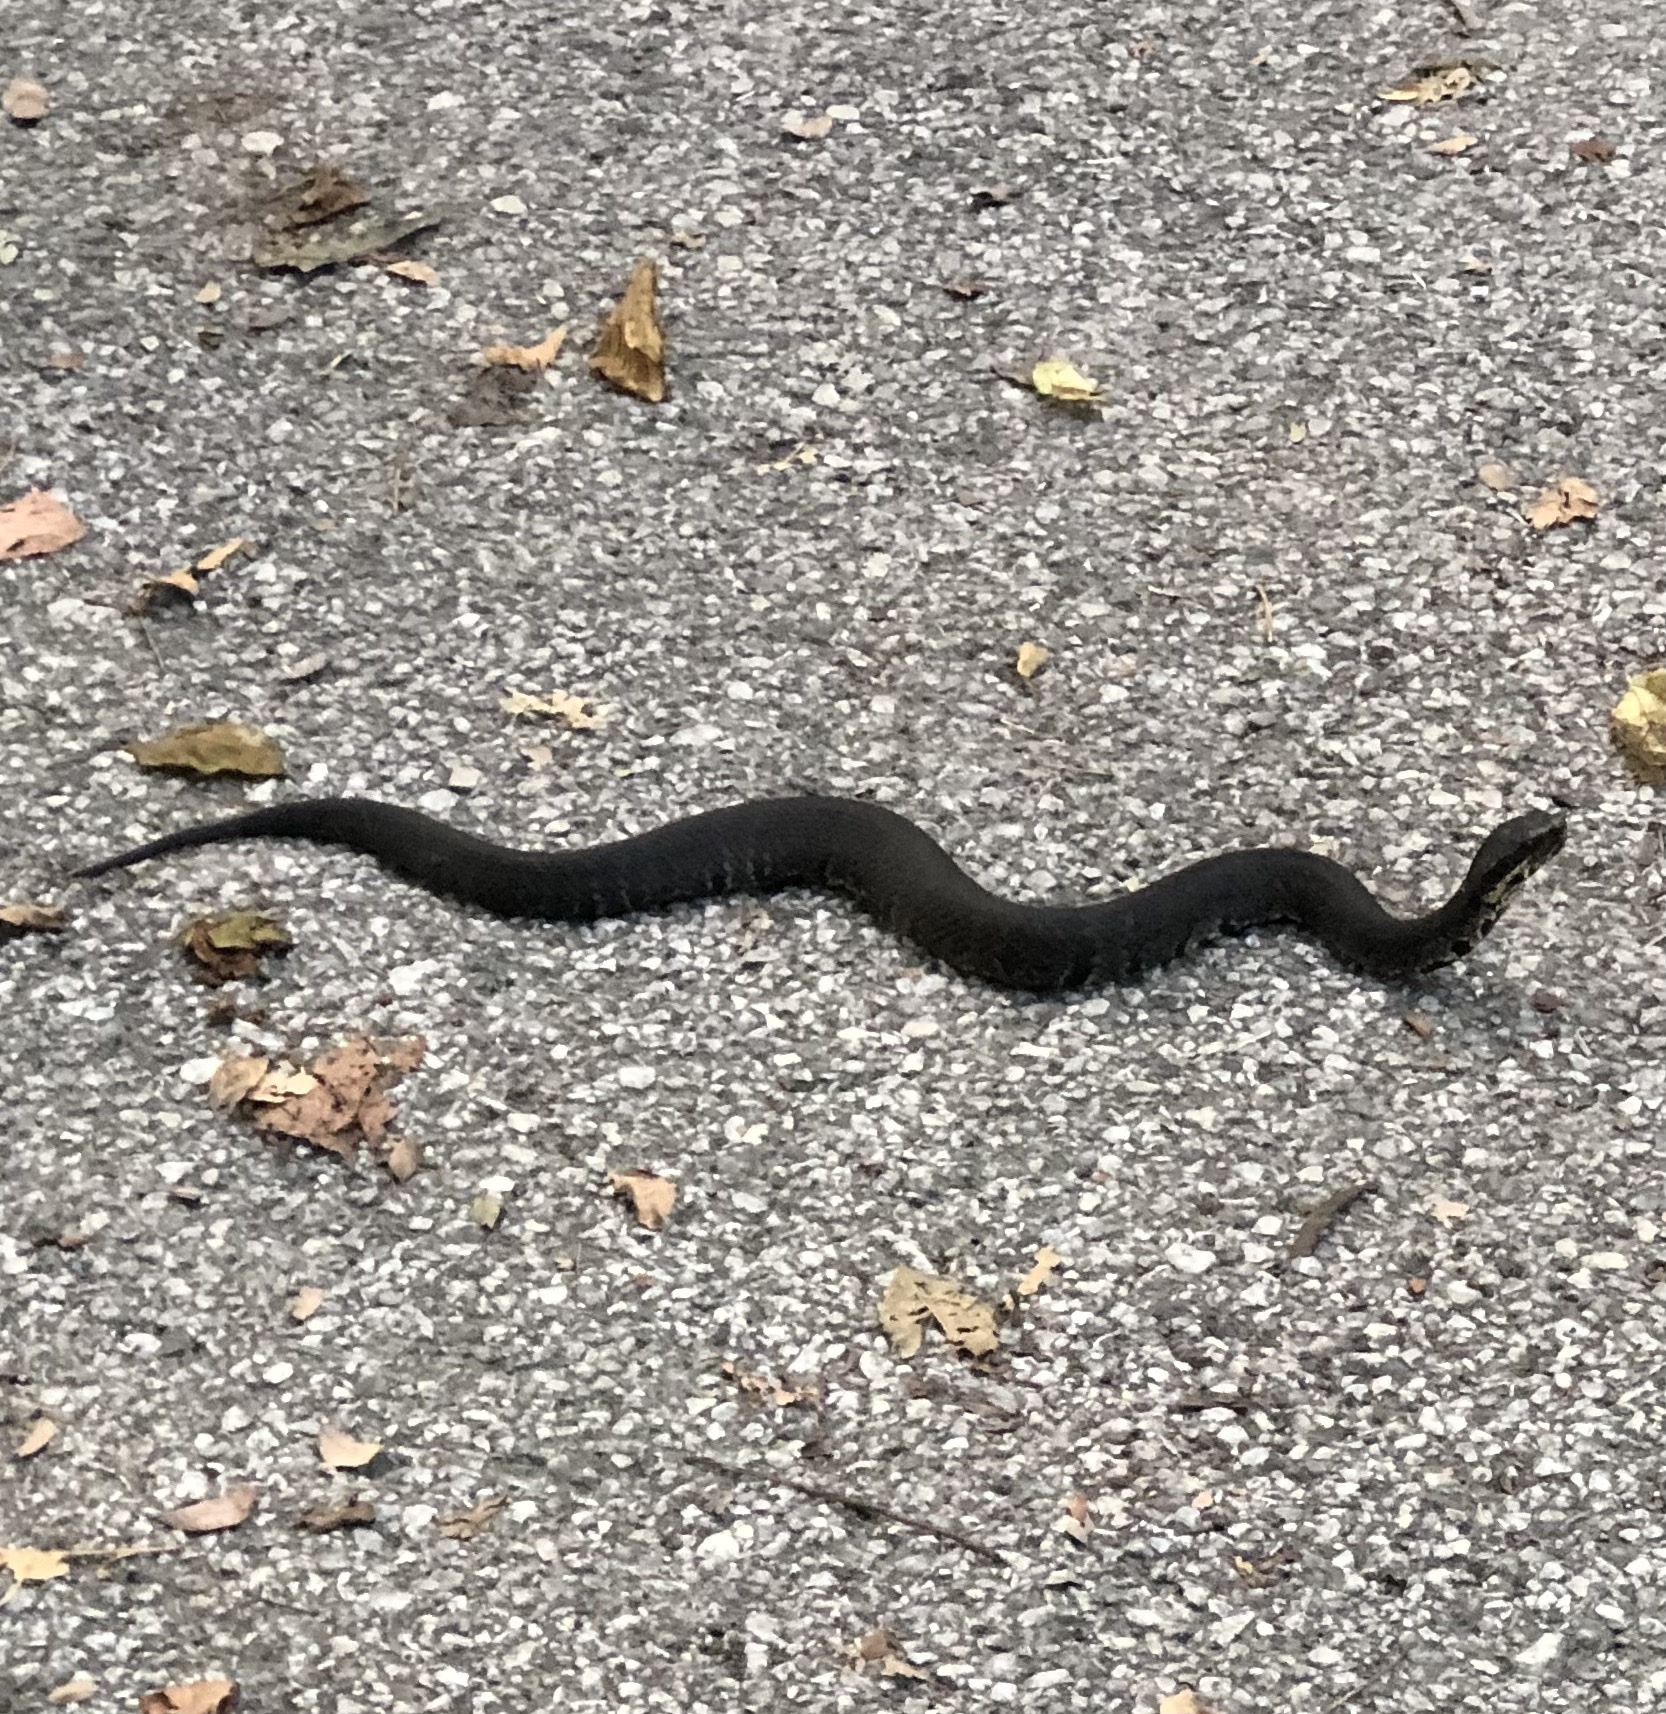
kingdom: Animalia
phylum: Chordata
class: Squamata
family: Viperidae
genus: Agkistrodon
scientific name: Agkistrodon piscivorus
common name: Cottonmouth
